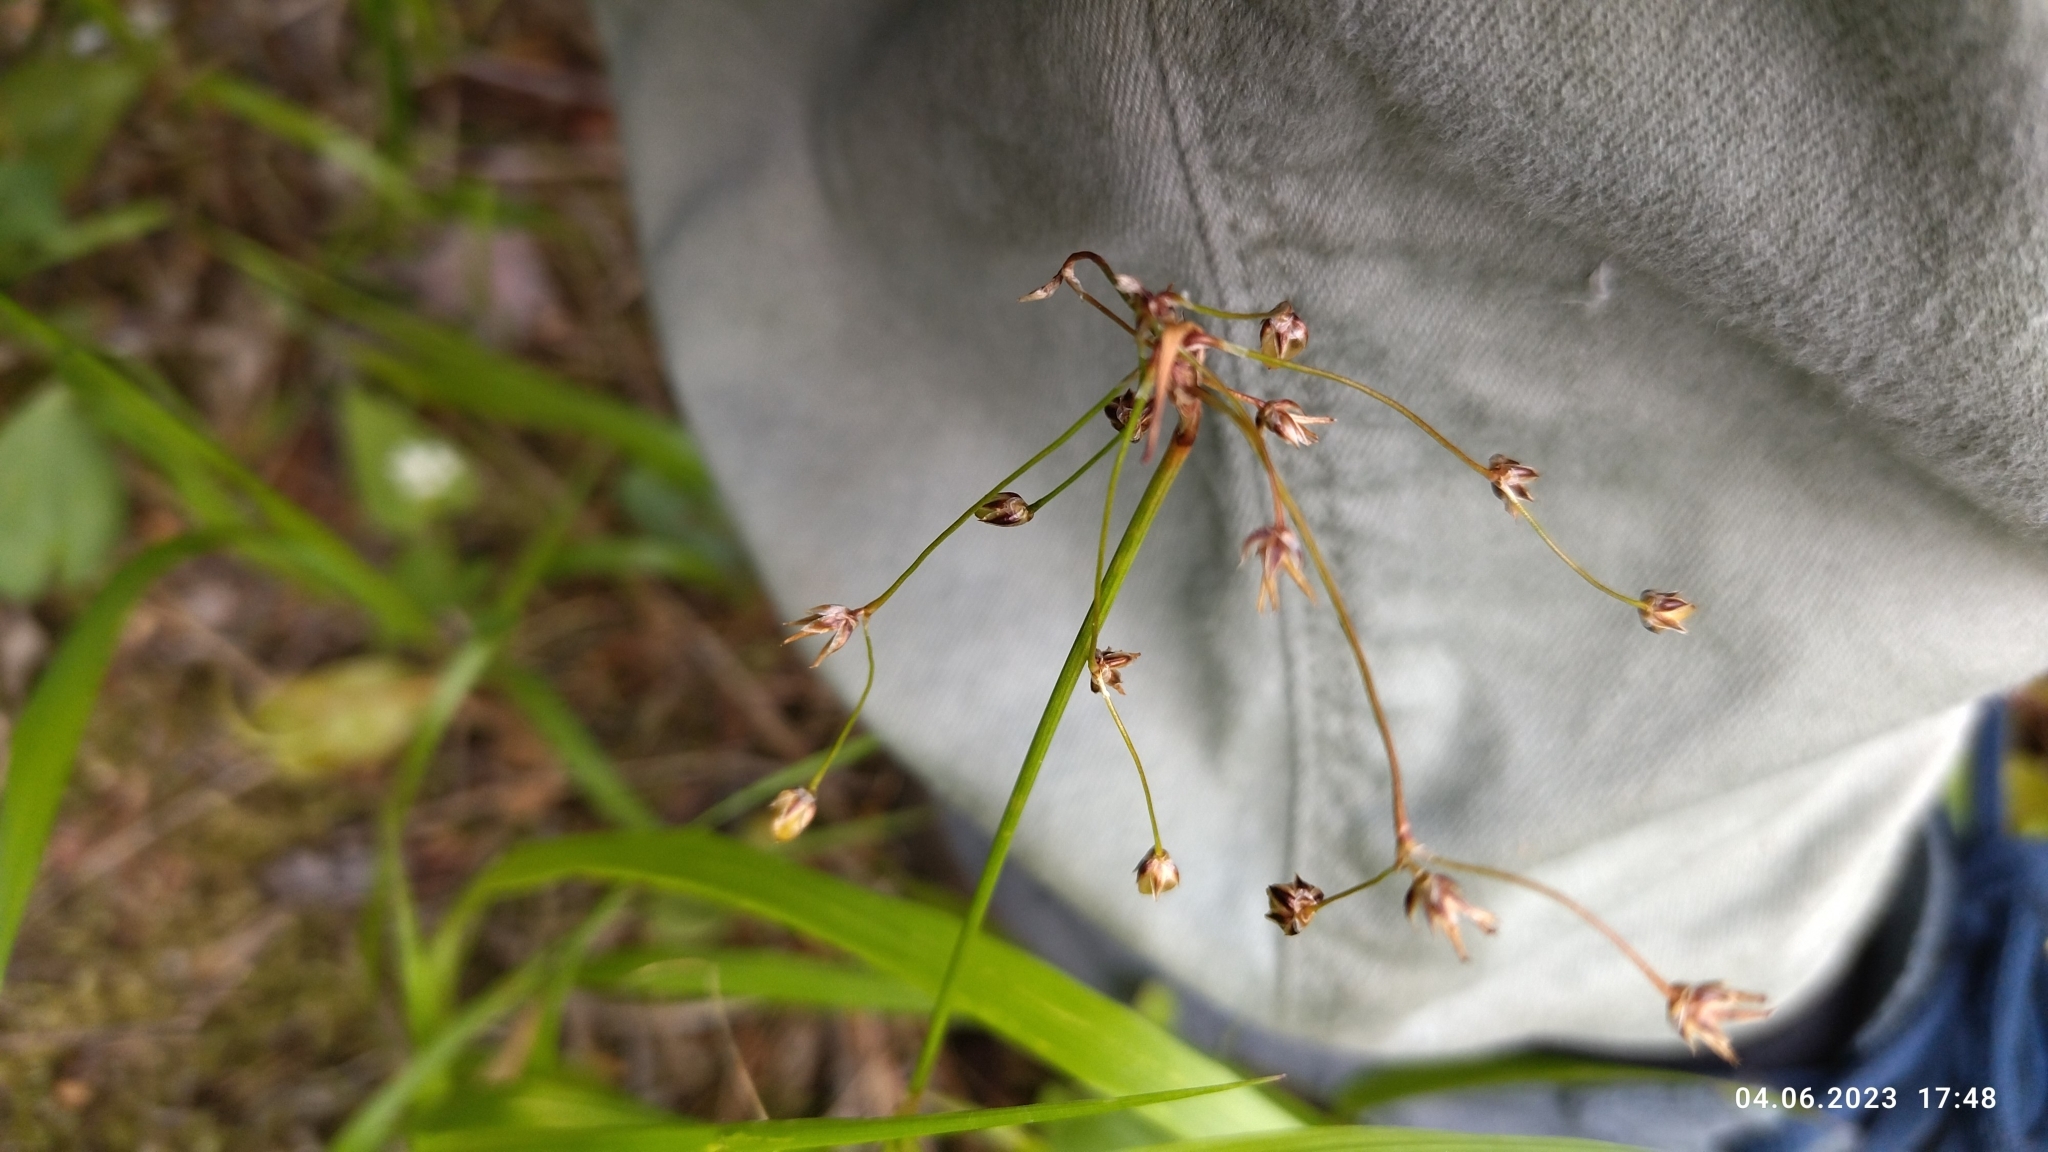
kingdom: Plantae
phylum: Tracheophyta
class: Liliopsida
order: Poales
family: Juncaceae
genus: Luzula
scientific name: Luzula pilosa
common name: Hairy wood-rush
